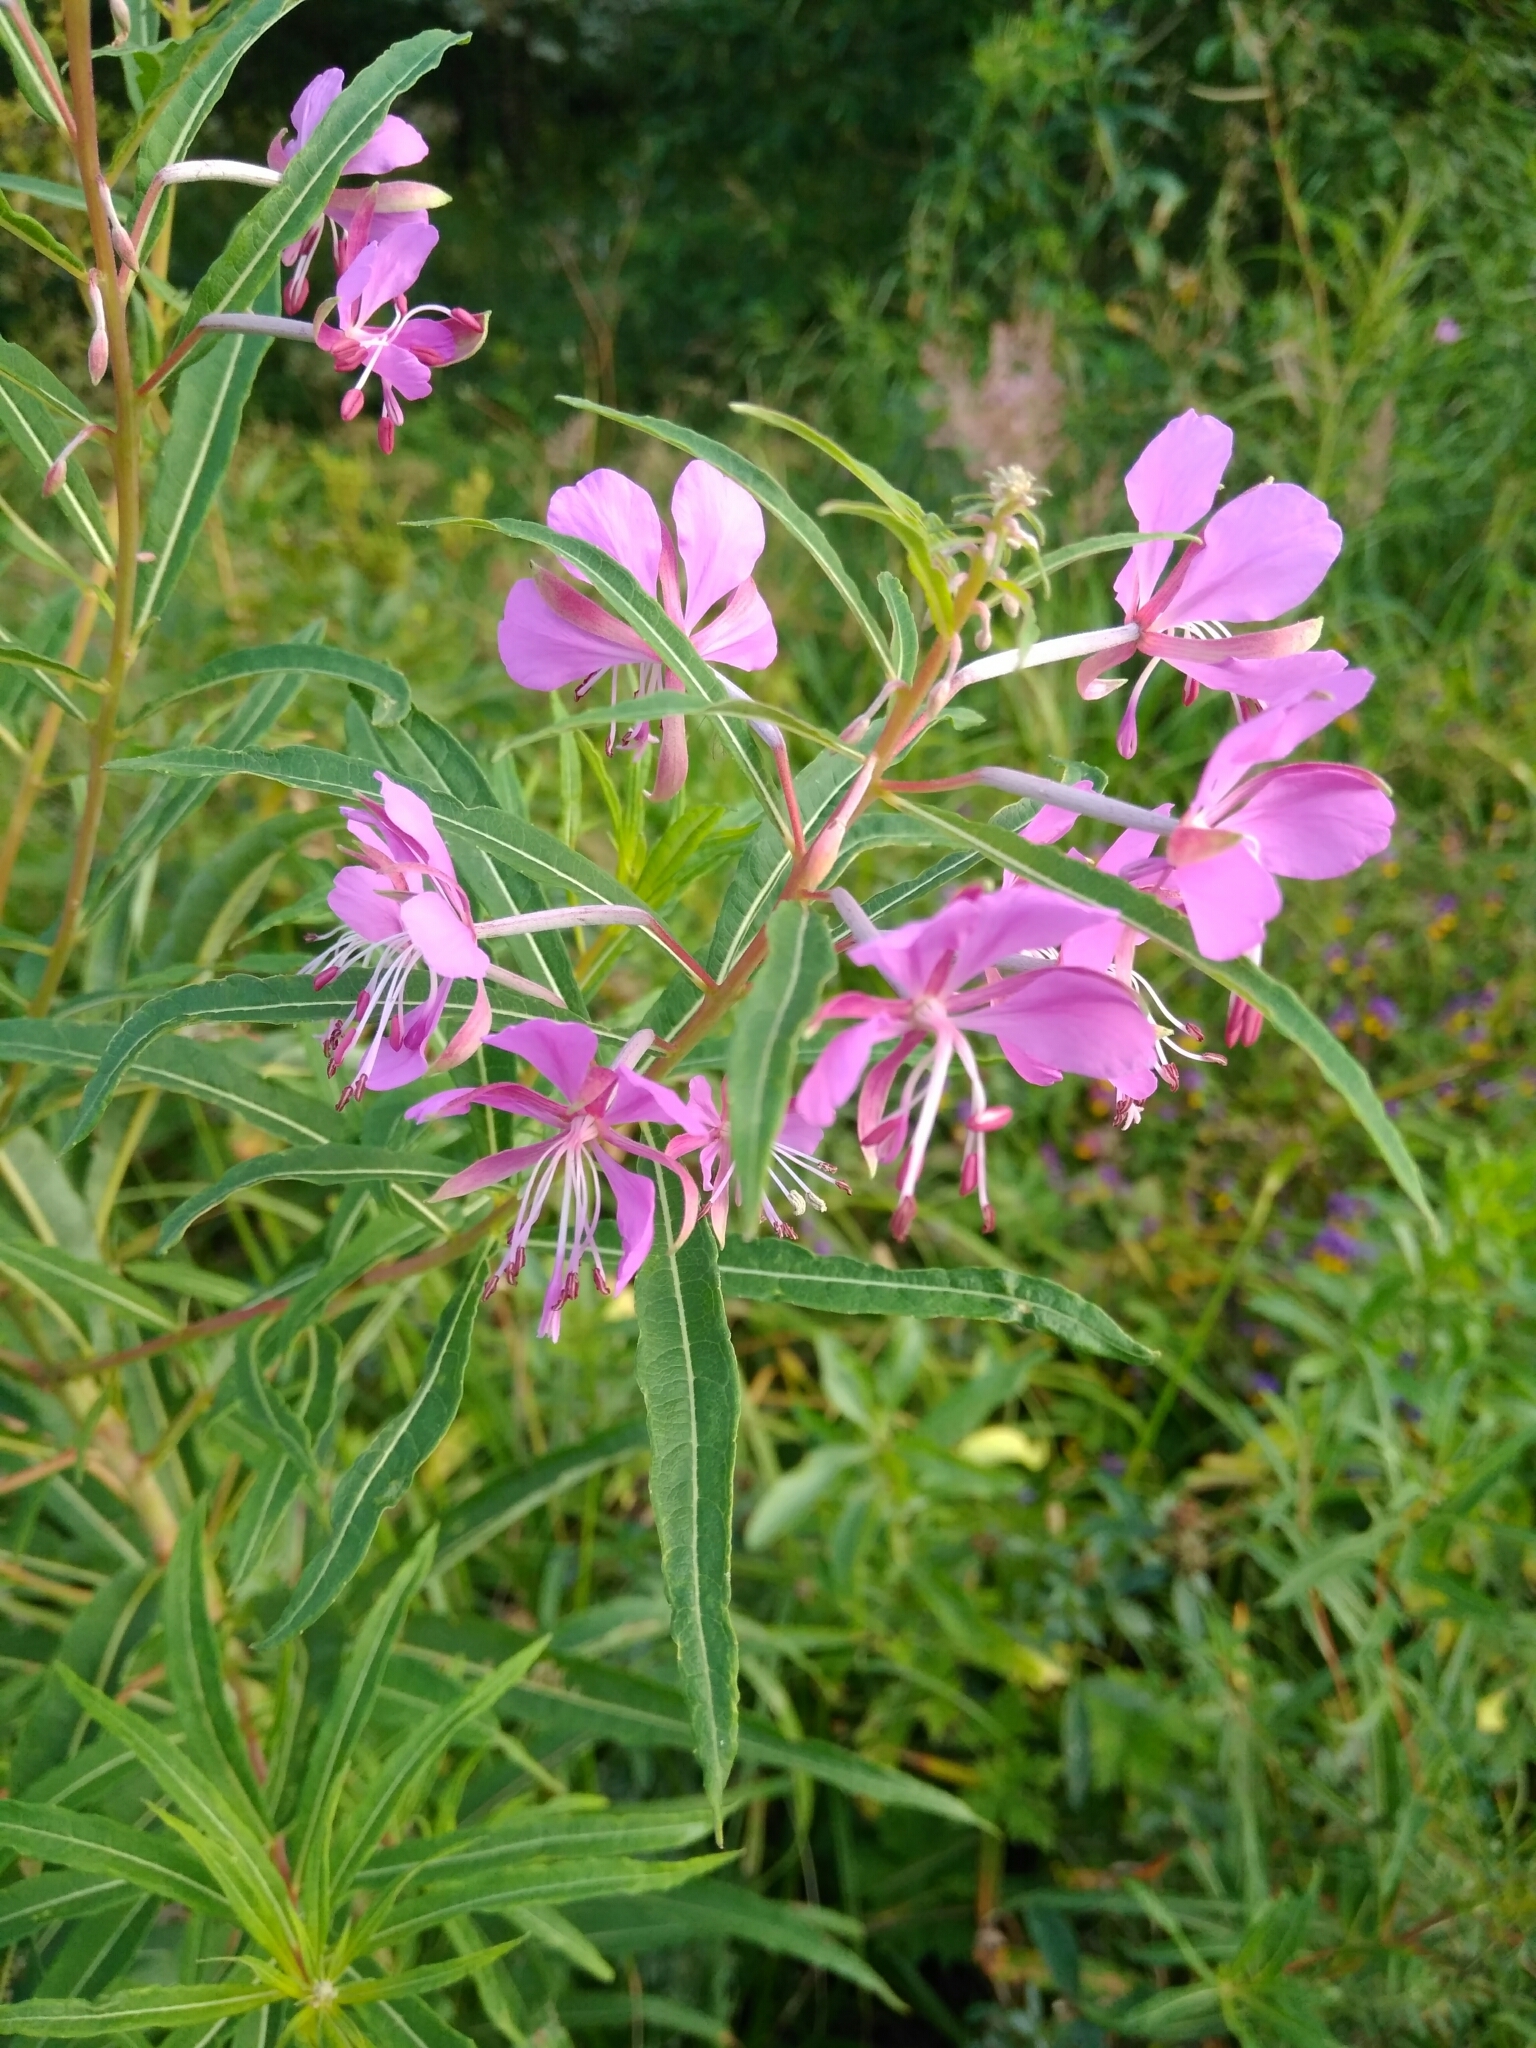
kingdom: Plantae
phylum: Tracheophyta
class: Magnoliopsida
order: Myrtales
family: Onagraceae
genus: Chamaenerion
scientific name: Chamaenerion angustifolium
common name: Fireweed
